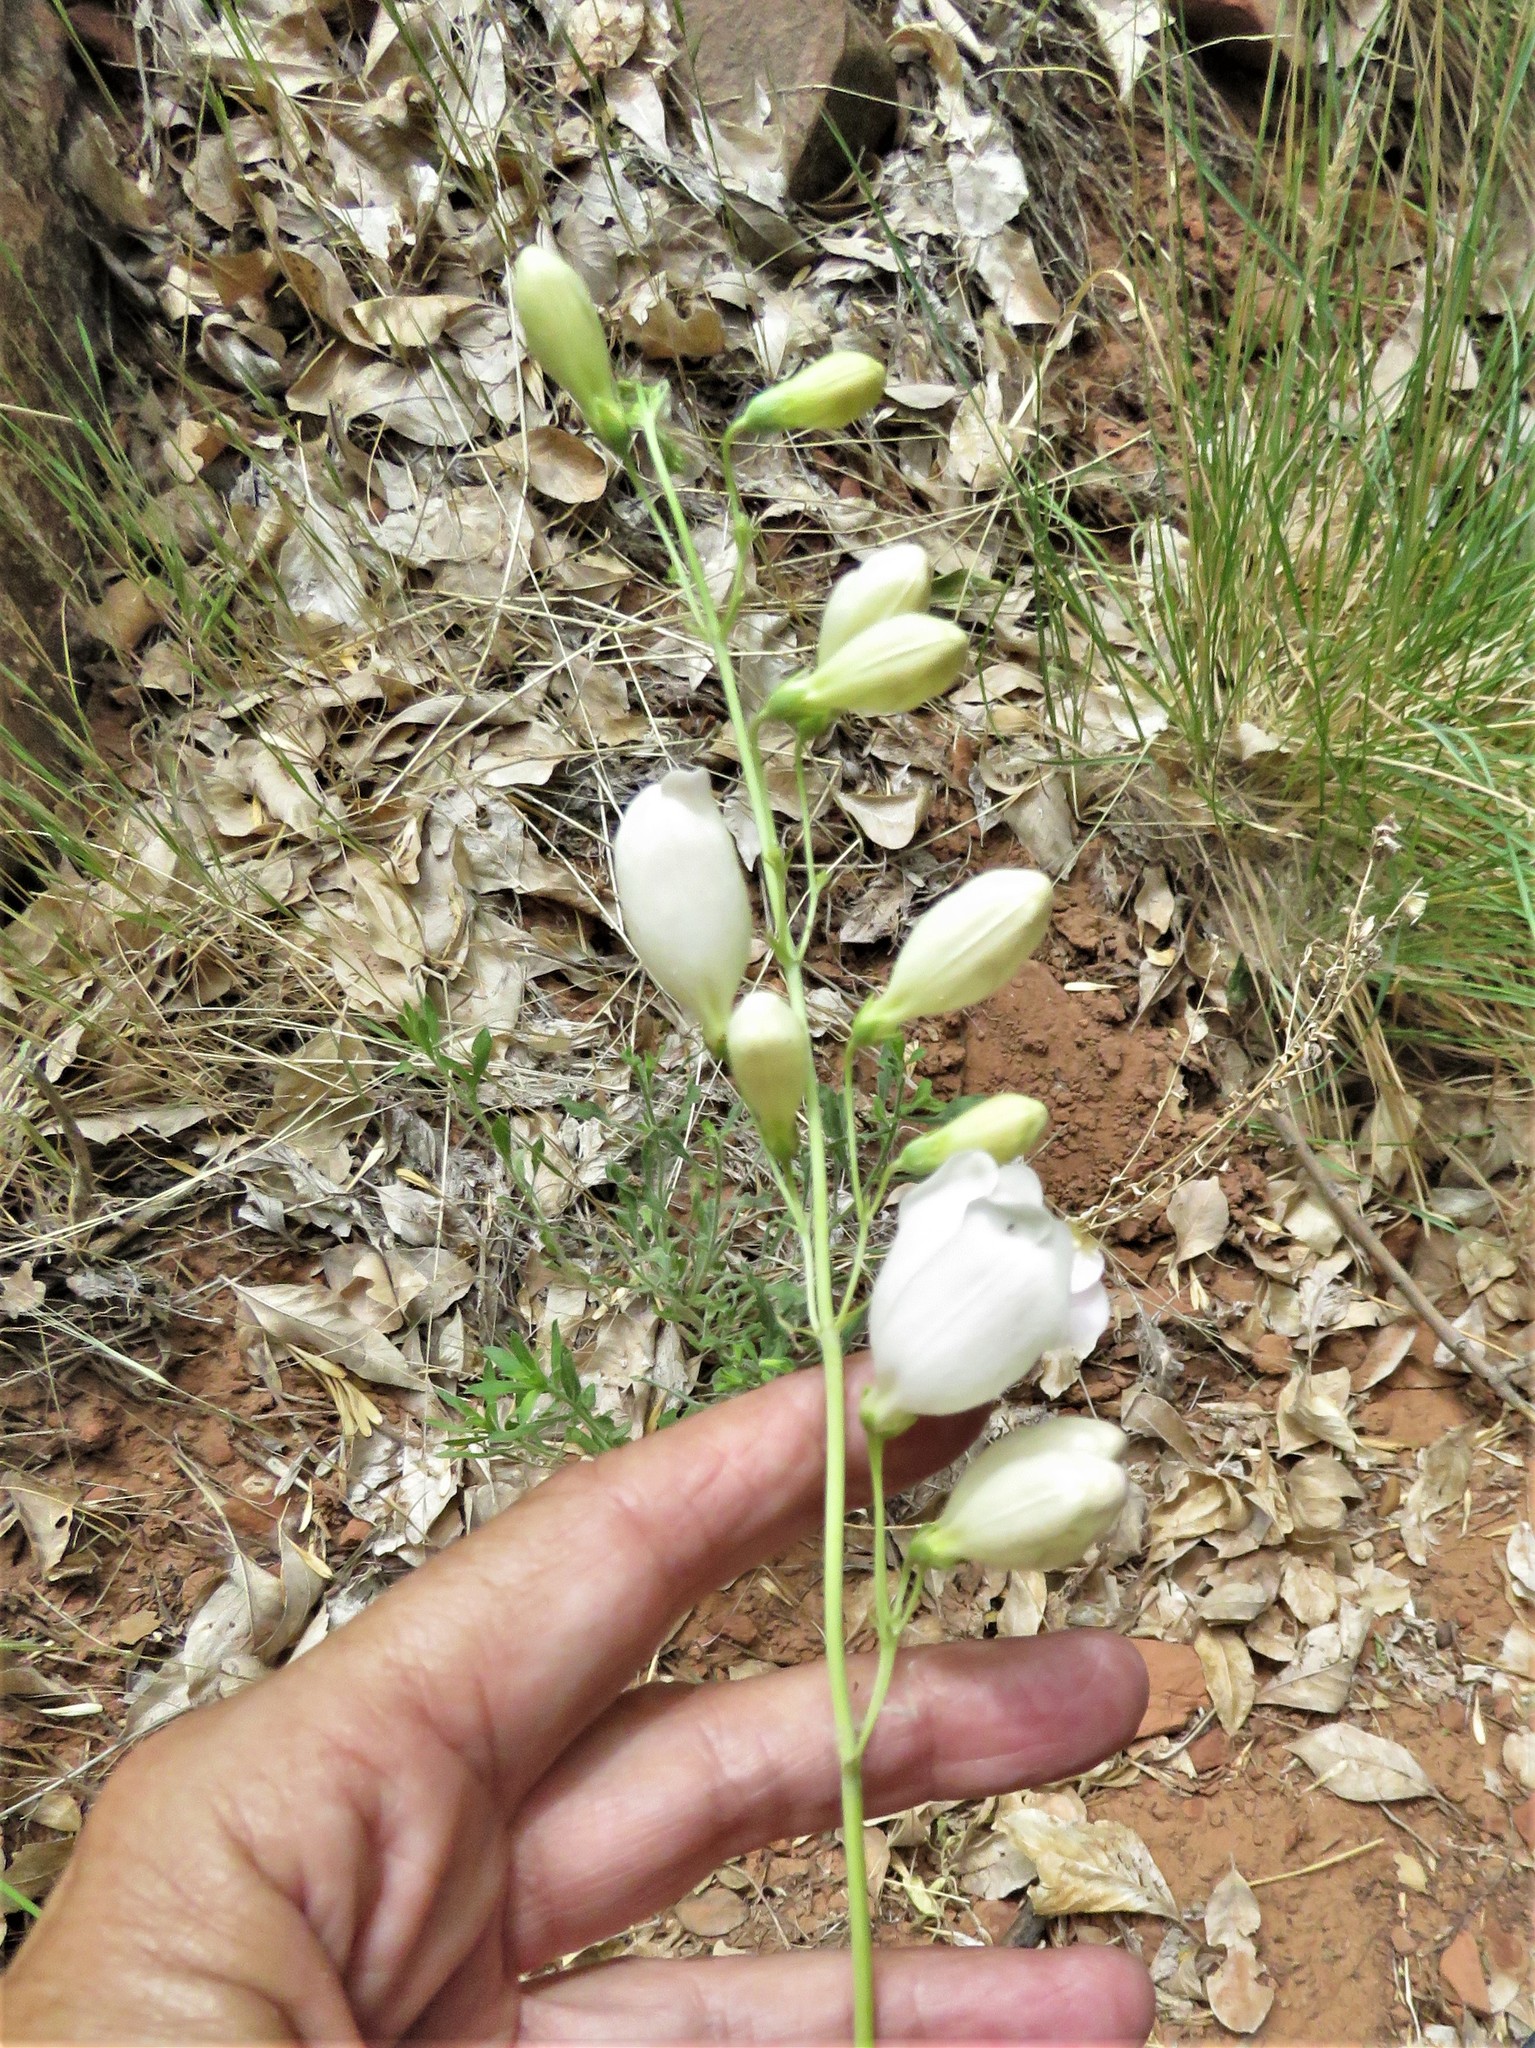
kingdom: Plantae
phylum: Tracheophyta
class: Magnoliopsida
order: Lamiales
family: Plantaginaceae
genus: Penstemon
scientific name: Penstemon palmeri
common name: Palmer penstemon
